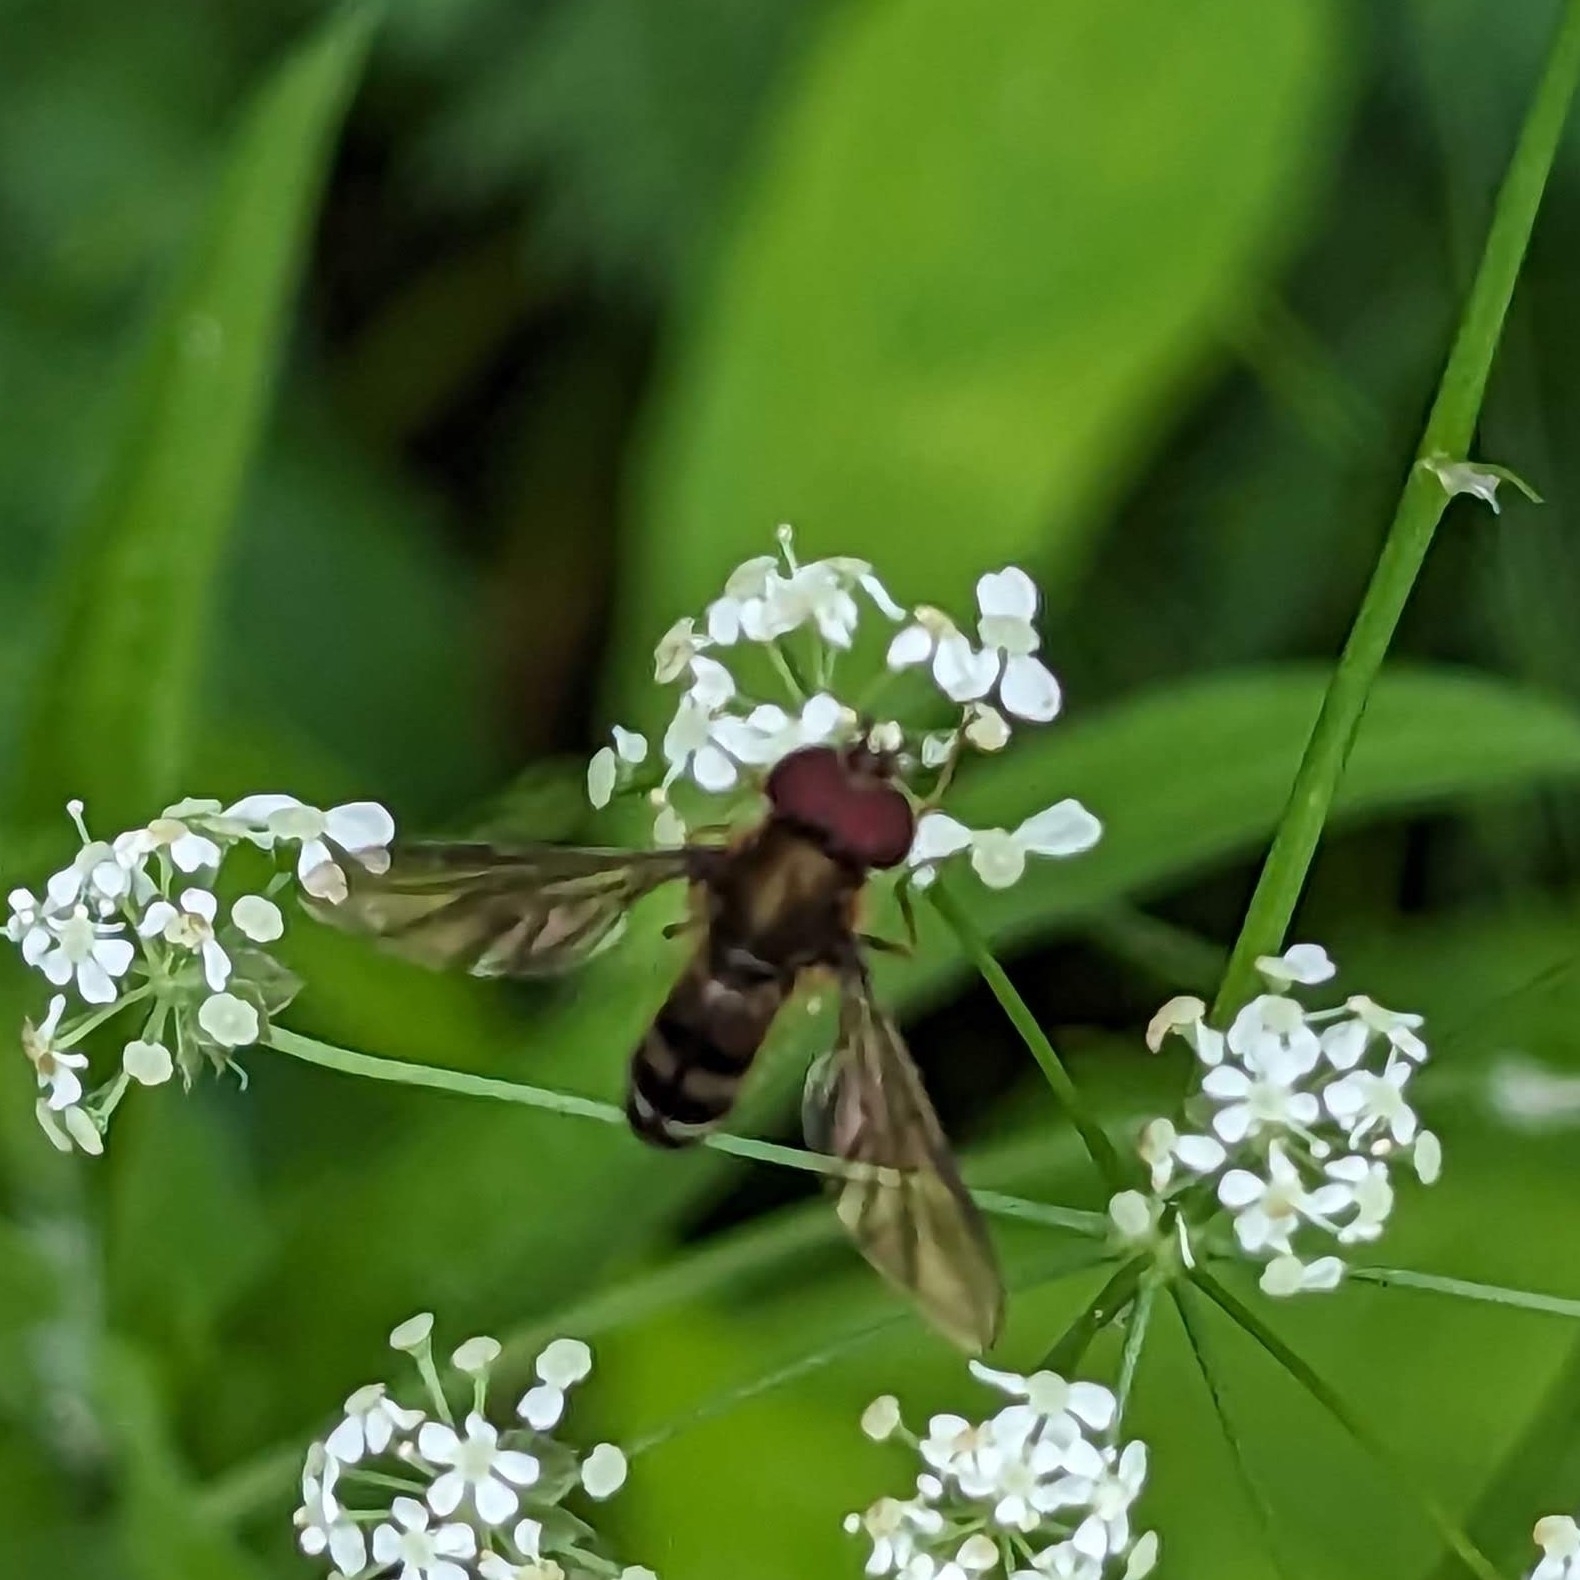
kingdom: Animalia
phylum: Arthropoda
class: Insecta
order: Diptera
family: Syrphidae
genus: Leucozona
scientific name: Leucozona xylotoides
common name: Eastern hoary
